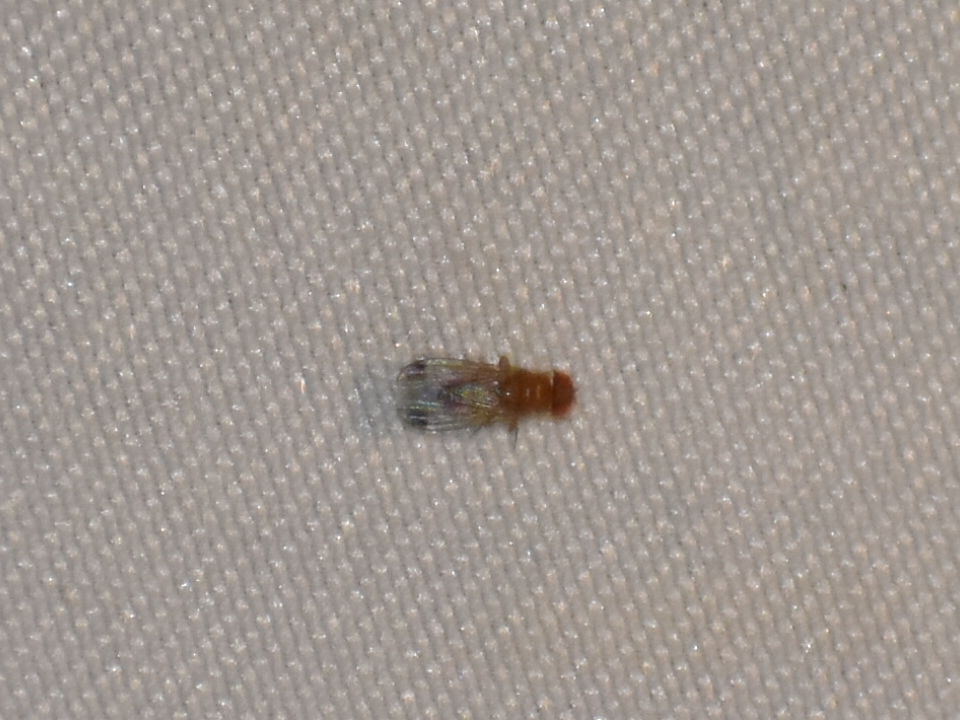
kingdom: Animalia
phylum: Arthropoda
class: Insecta
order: Diptera
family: Drosophilidae
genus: Drosophila
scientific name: Drosophila suzukii
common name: Spotted-wing drosophila
